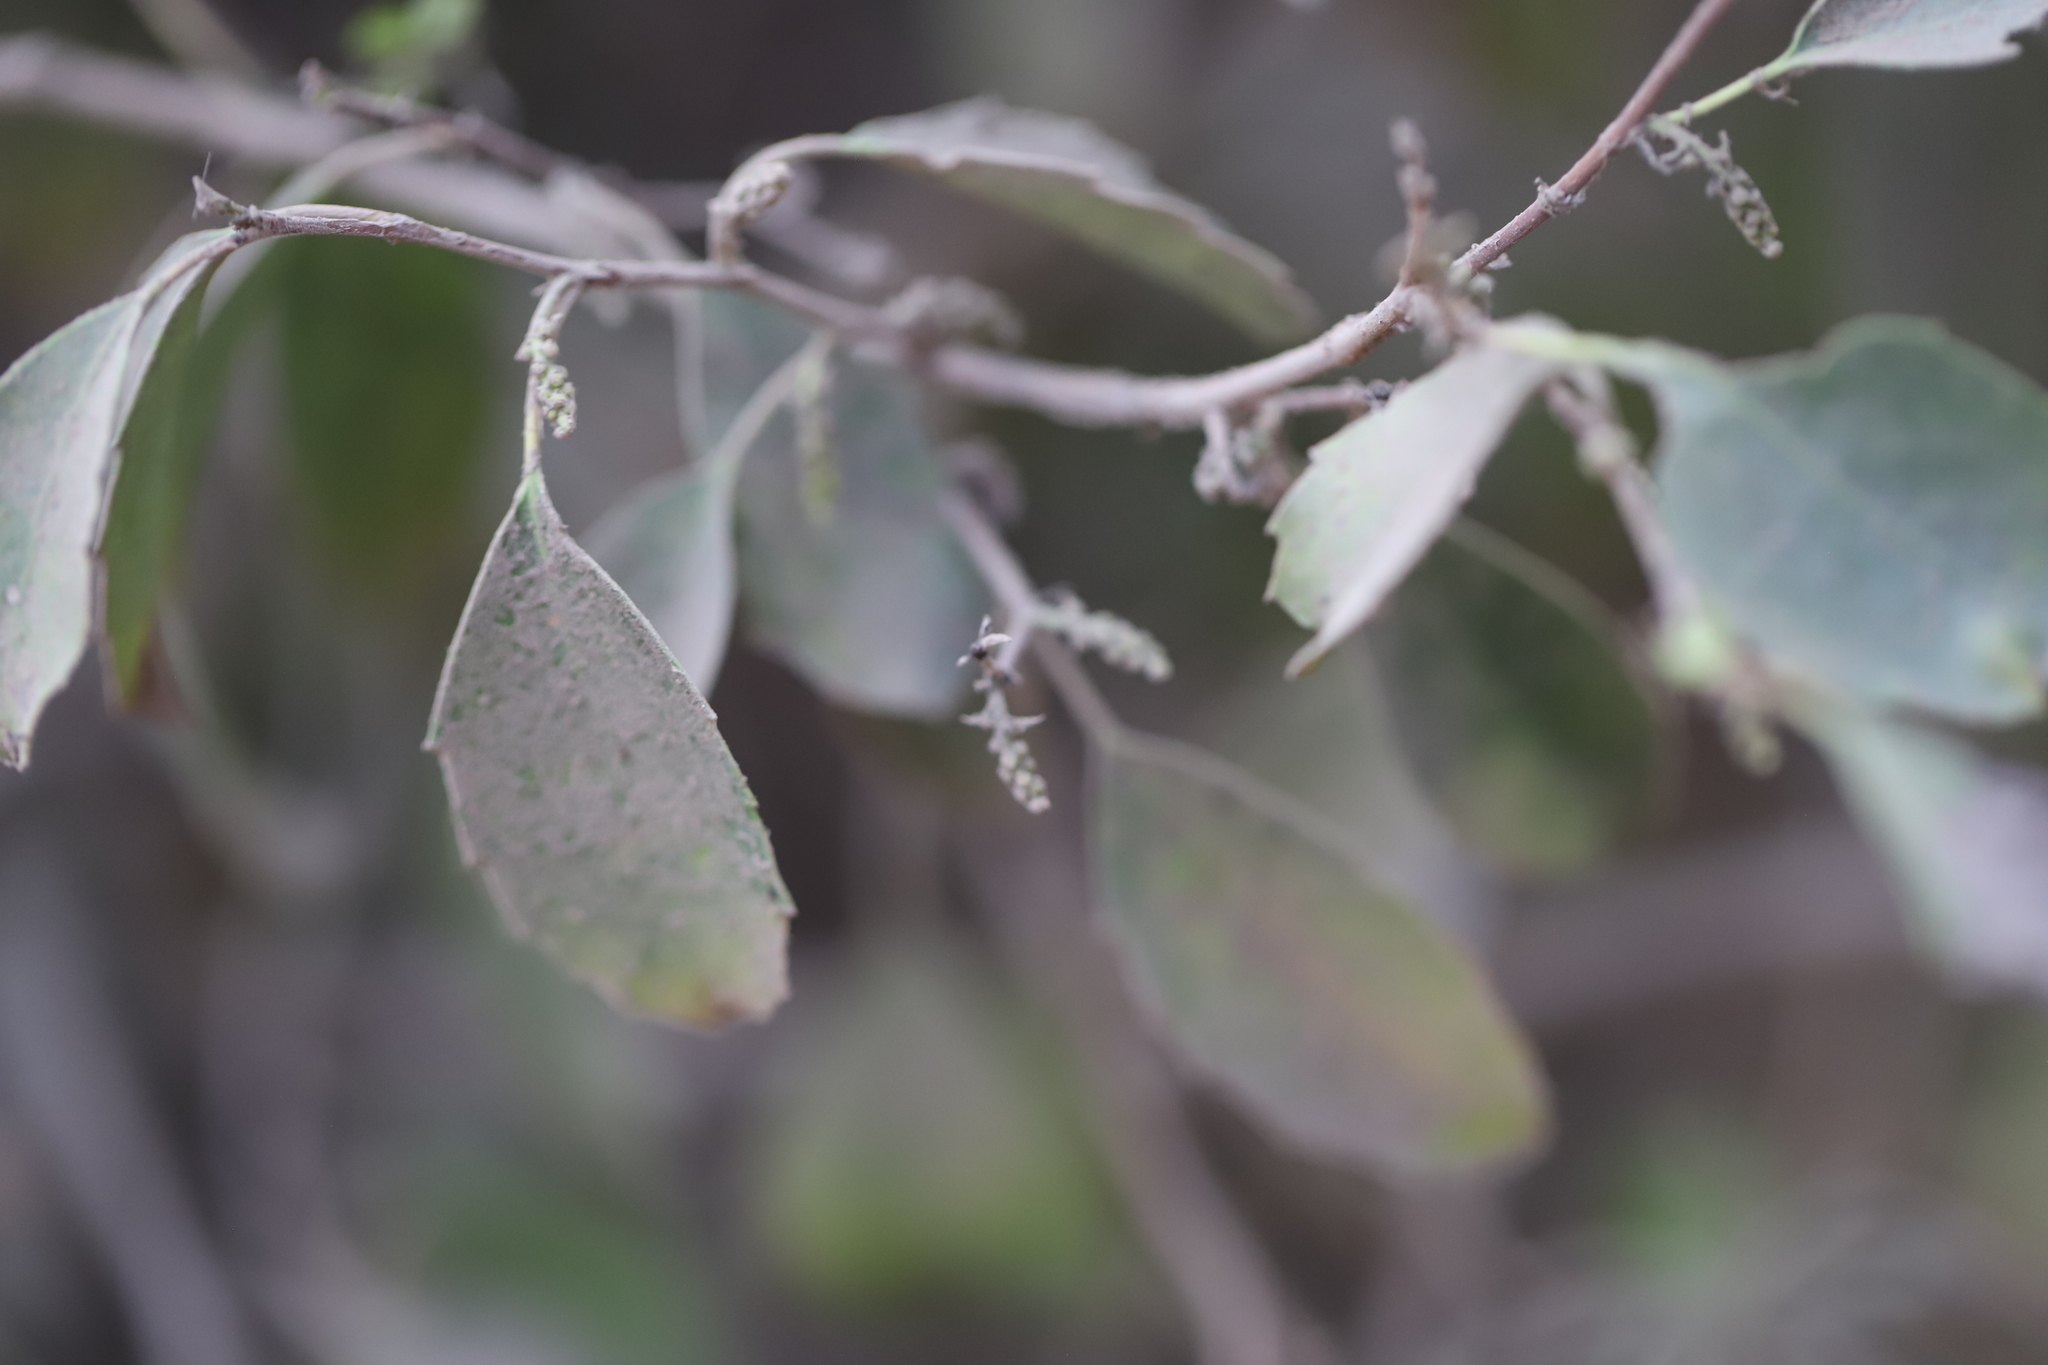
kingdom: Plantae
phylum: Tracheophyta
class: Magnoliopsida
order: Malpighiales
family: Salicaceae
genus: Azara
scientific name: Azara petiolaris
